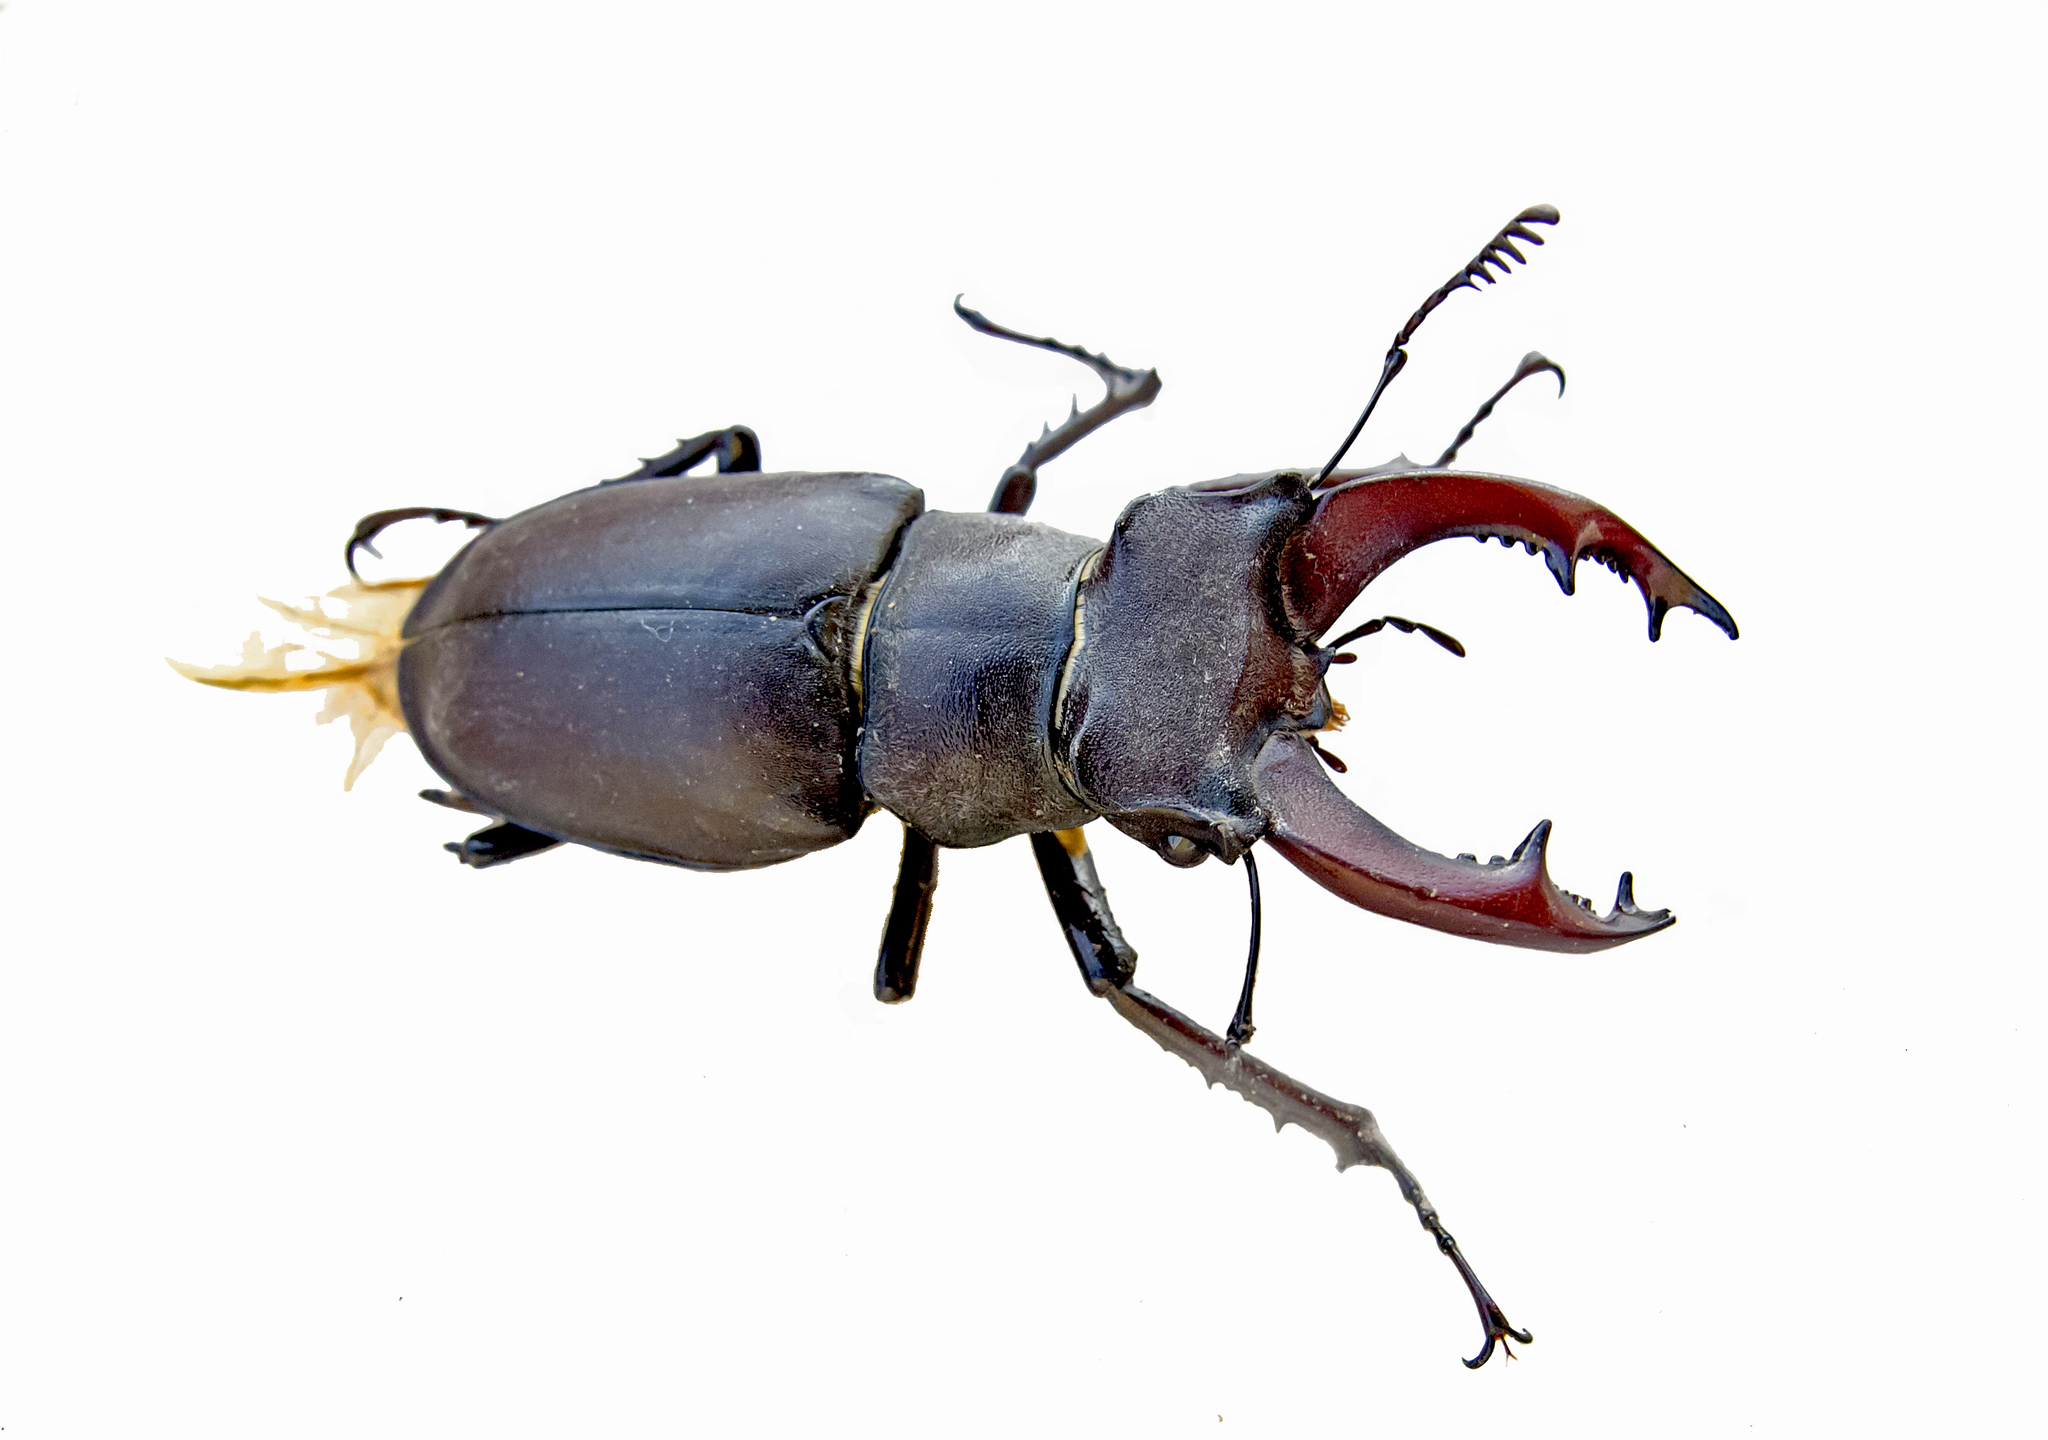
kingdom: Animalia
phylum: Arthropoda
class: Insecta
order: Coleoptera
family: Lucanidae
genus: Lucanus
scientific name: Lucanus cervus
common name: Stag beetle
